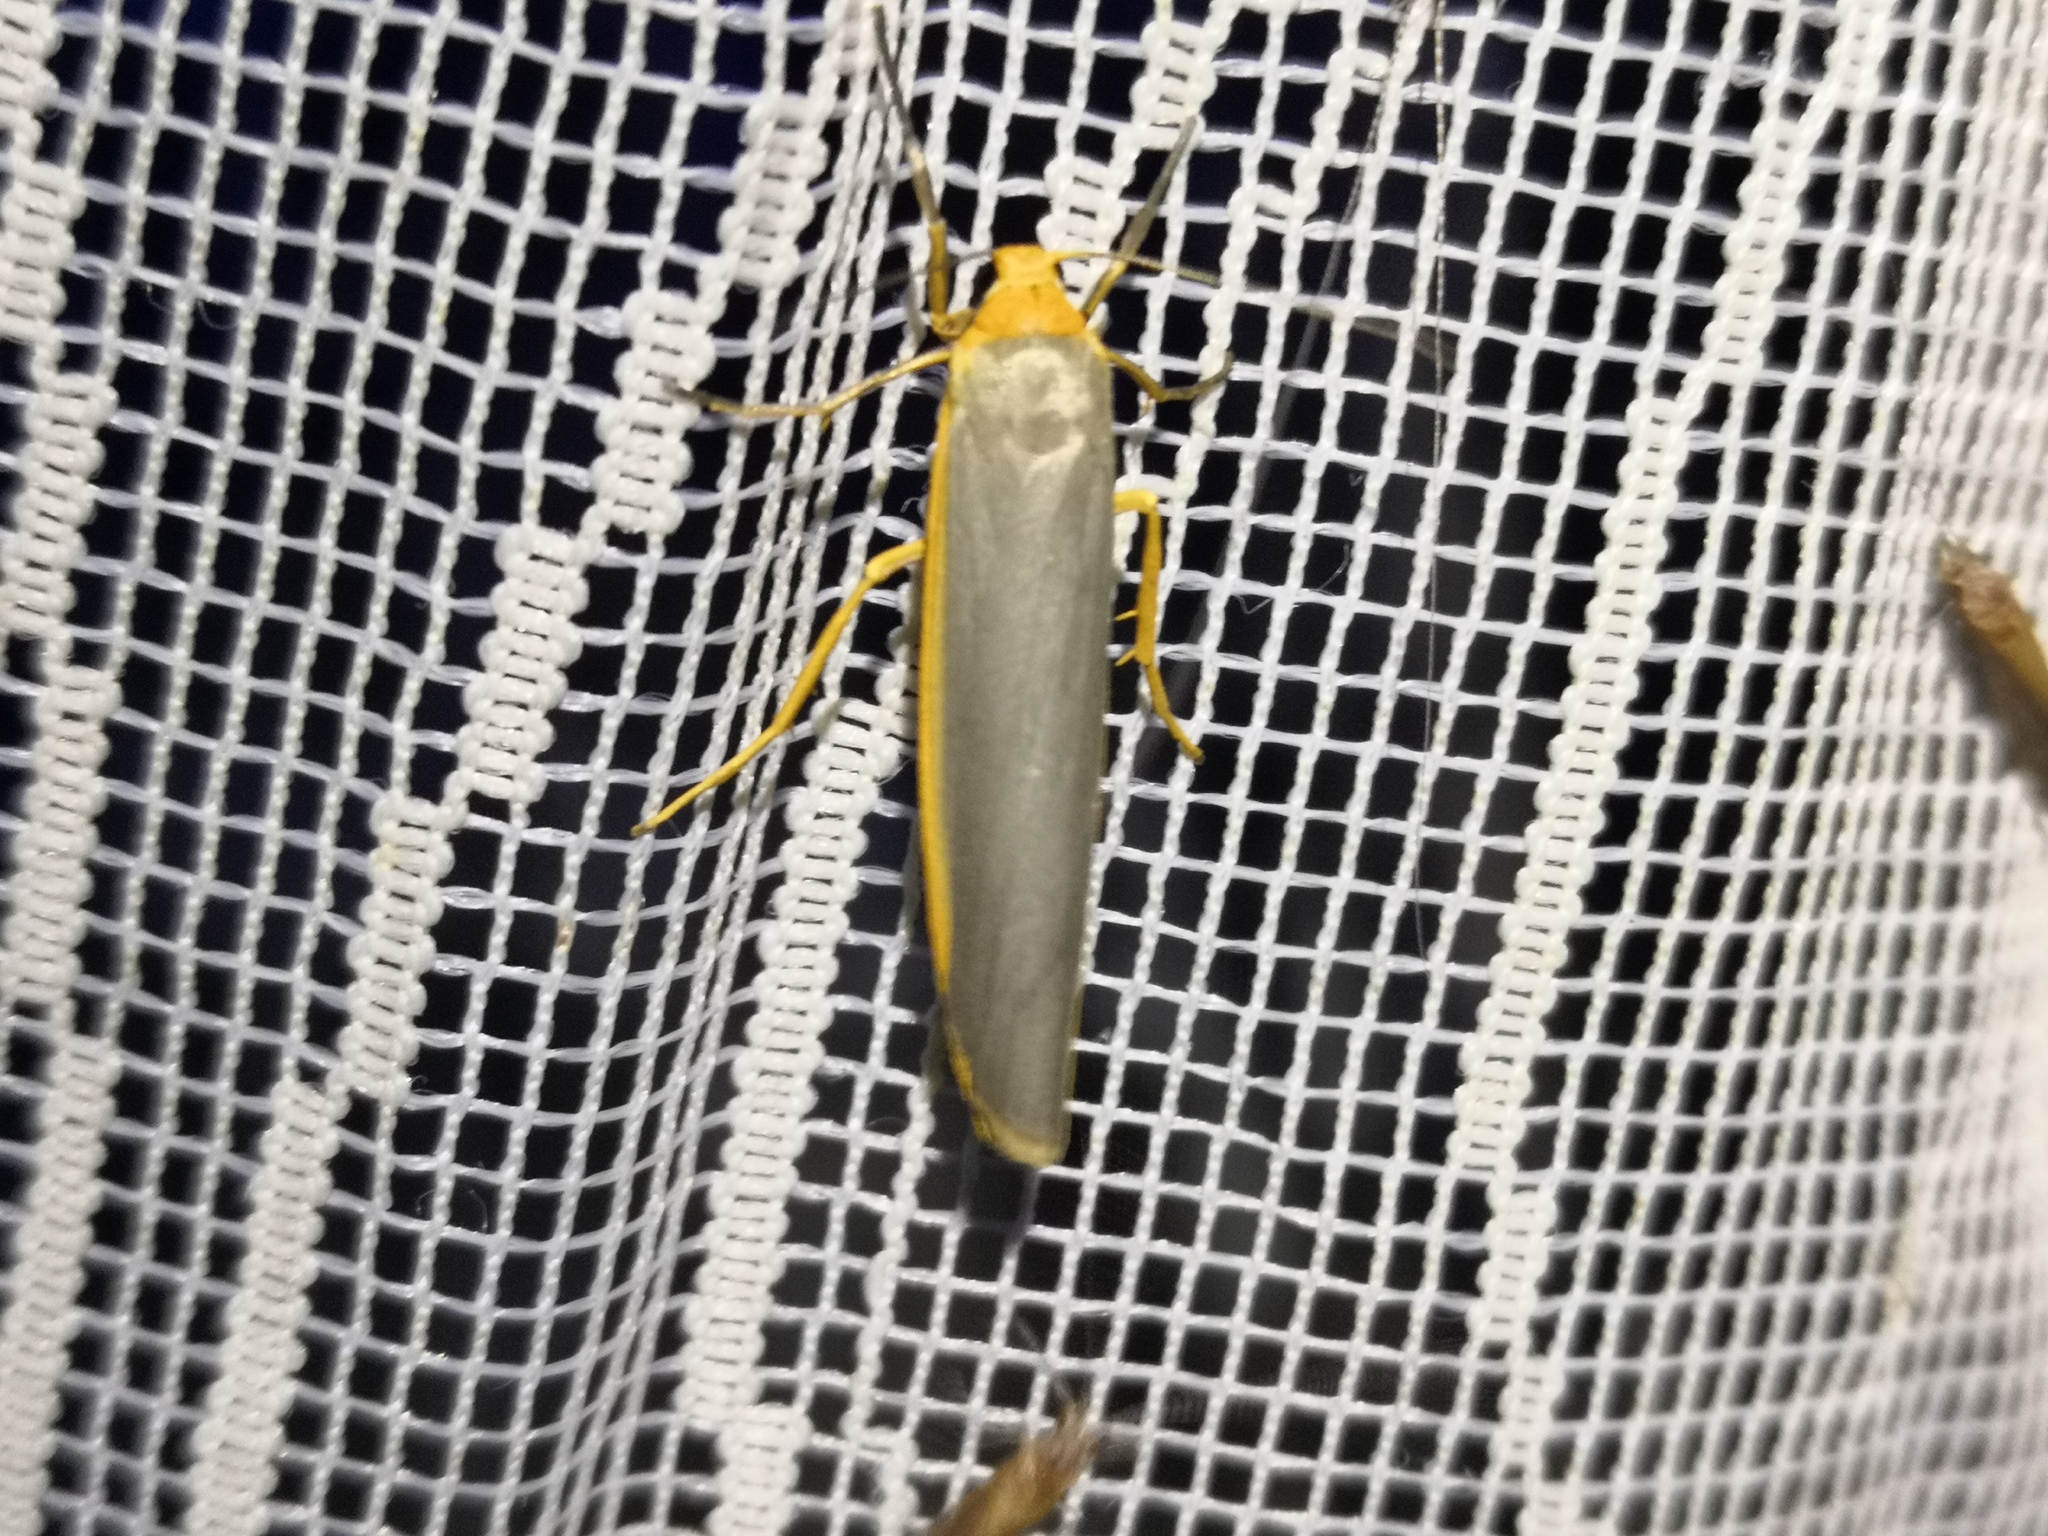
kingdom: Animalia
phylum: Arthropoda
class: Insecta
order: Lepidoptera
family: Erebidae
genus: Manulea
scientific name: Manulea complana
